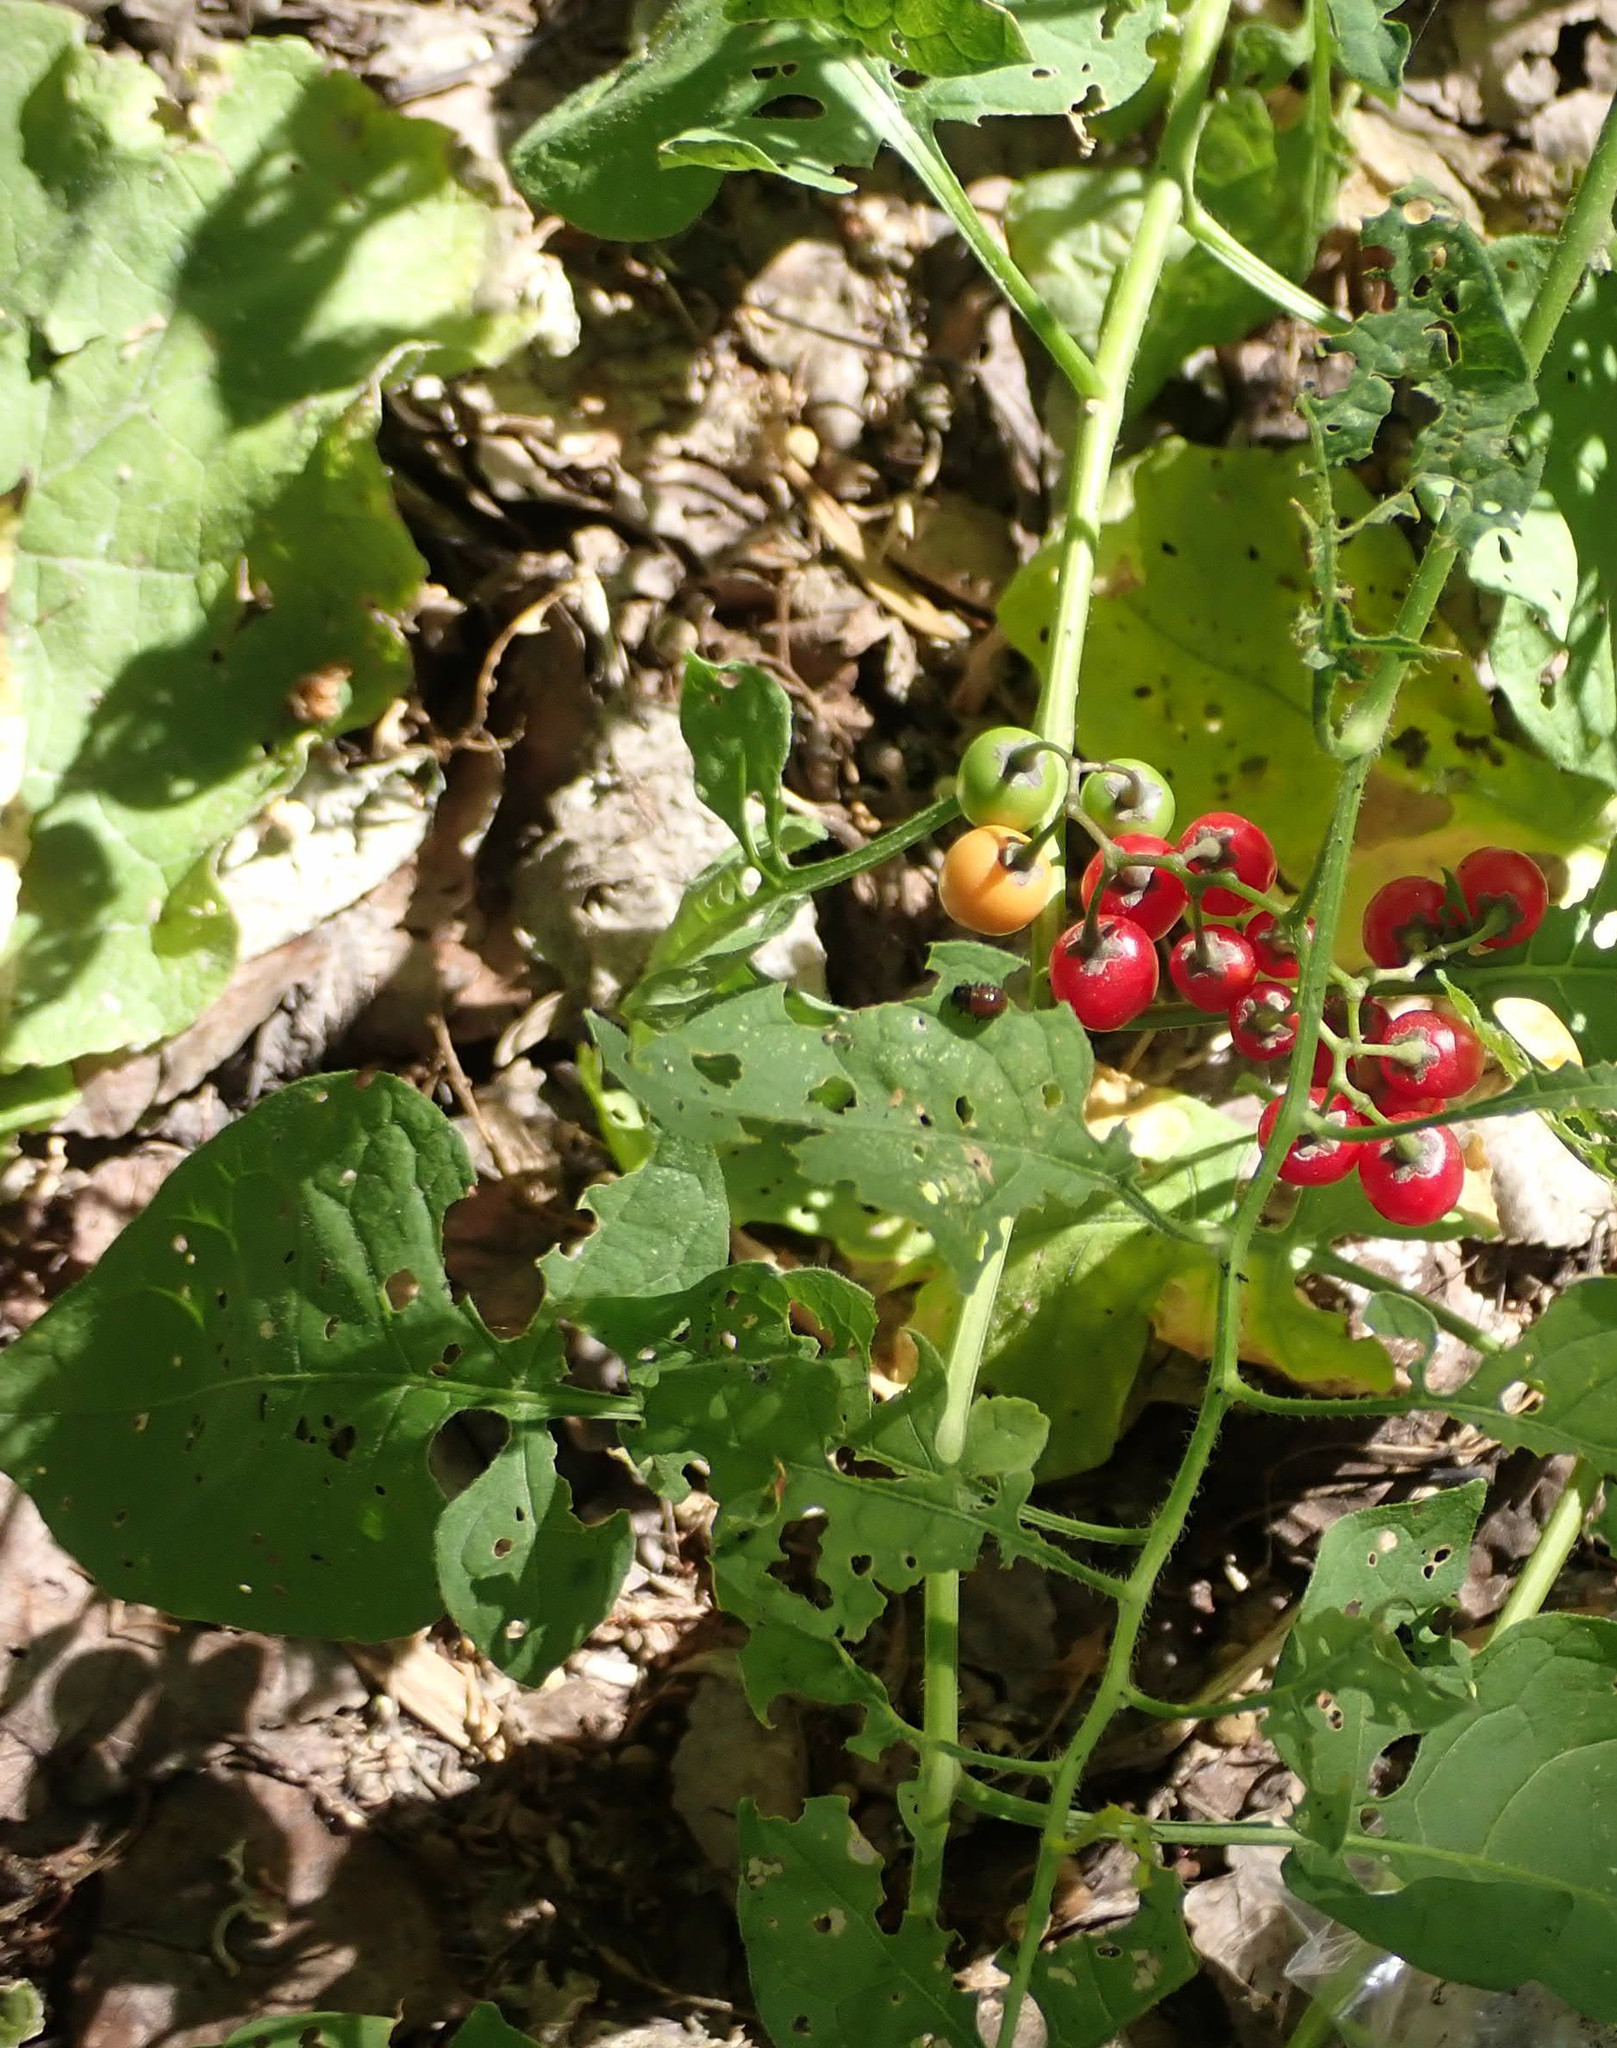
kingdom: Plantae
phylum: Tracheophyta
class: Magnoliopsida
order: Solanales
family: Solanaceae
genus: Solanum
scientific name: Solanum dulcamara
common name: Climbing nightshade
